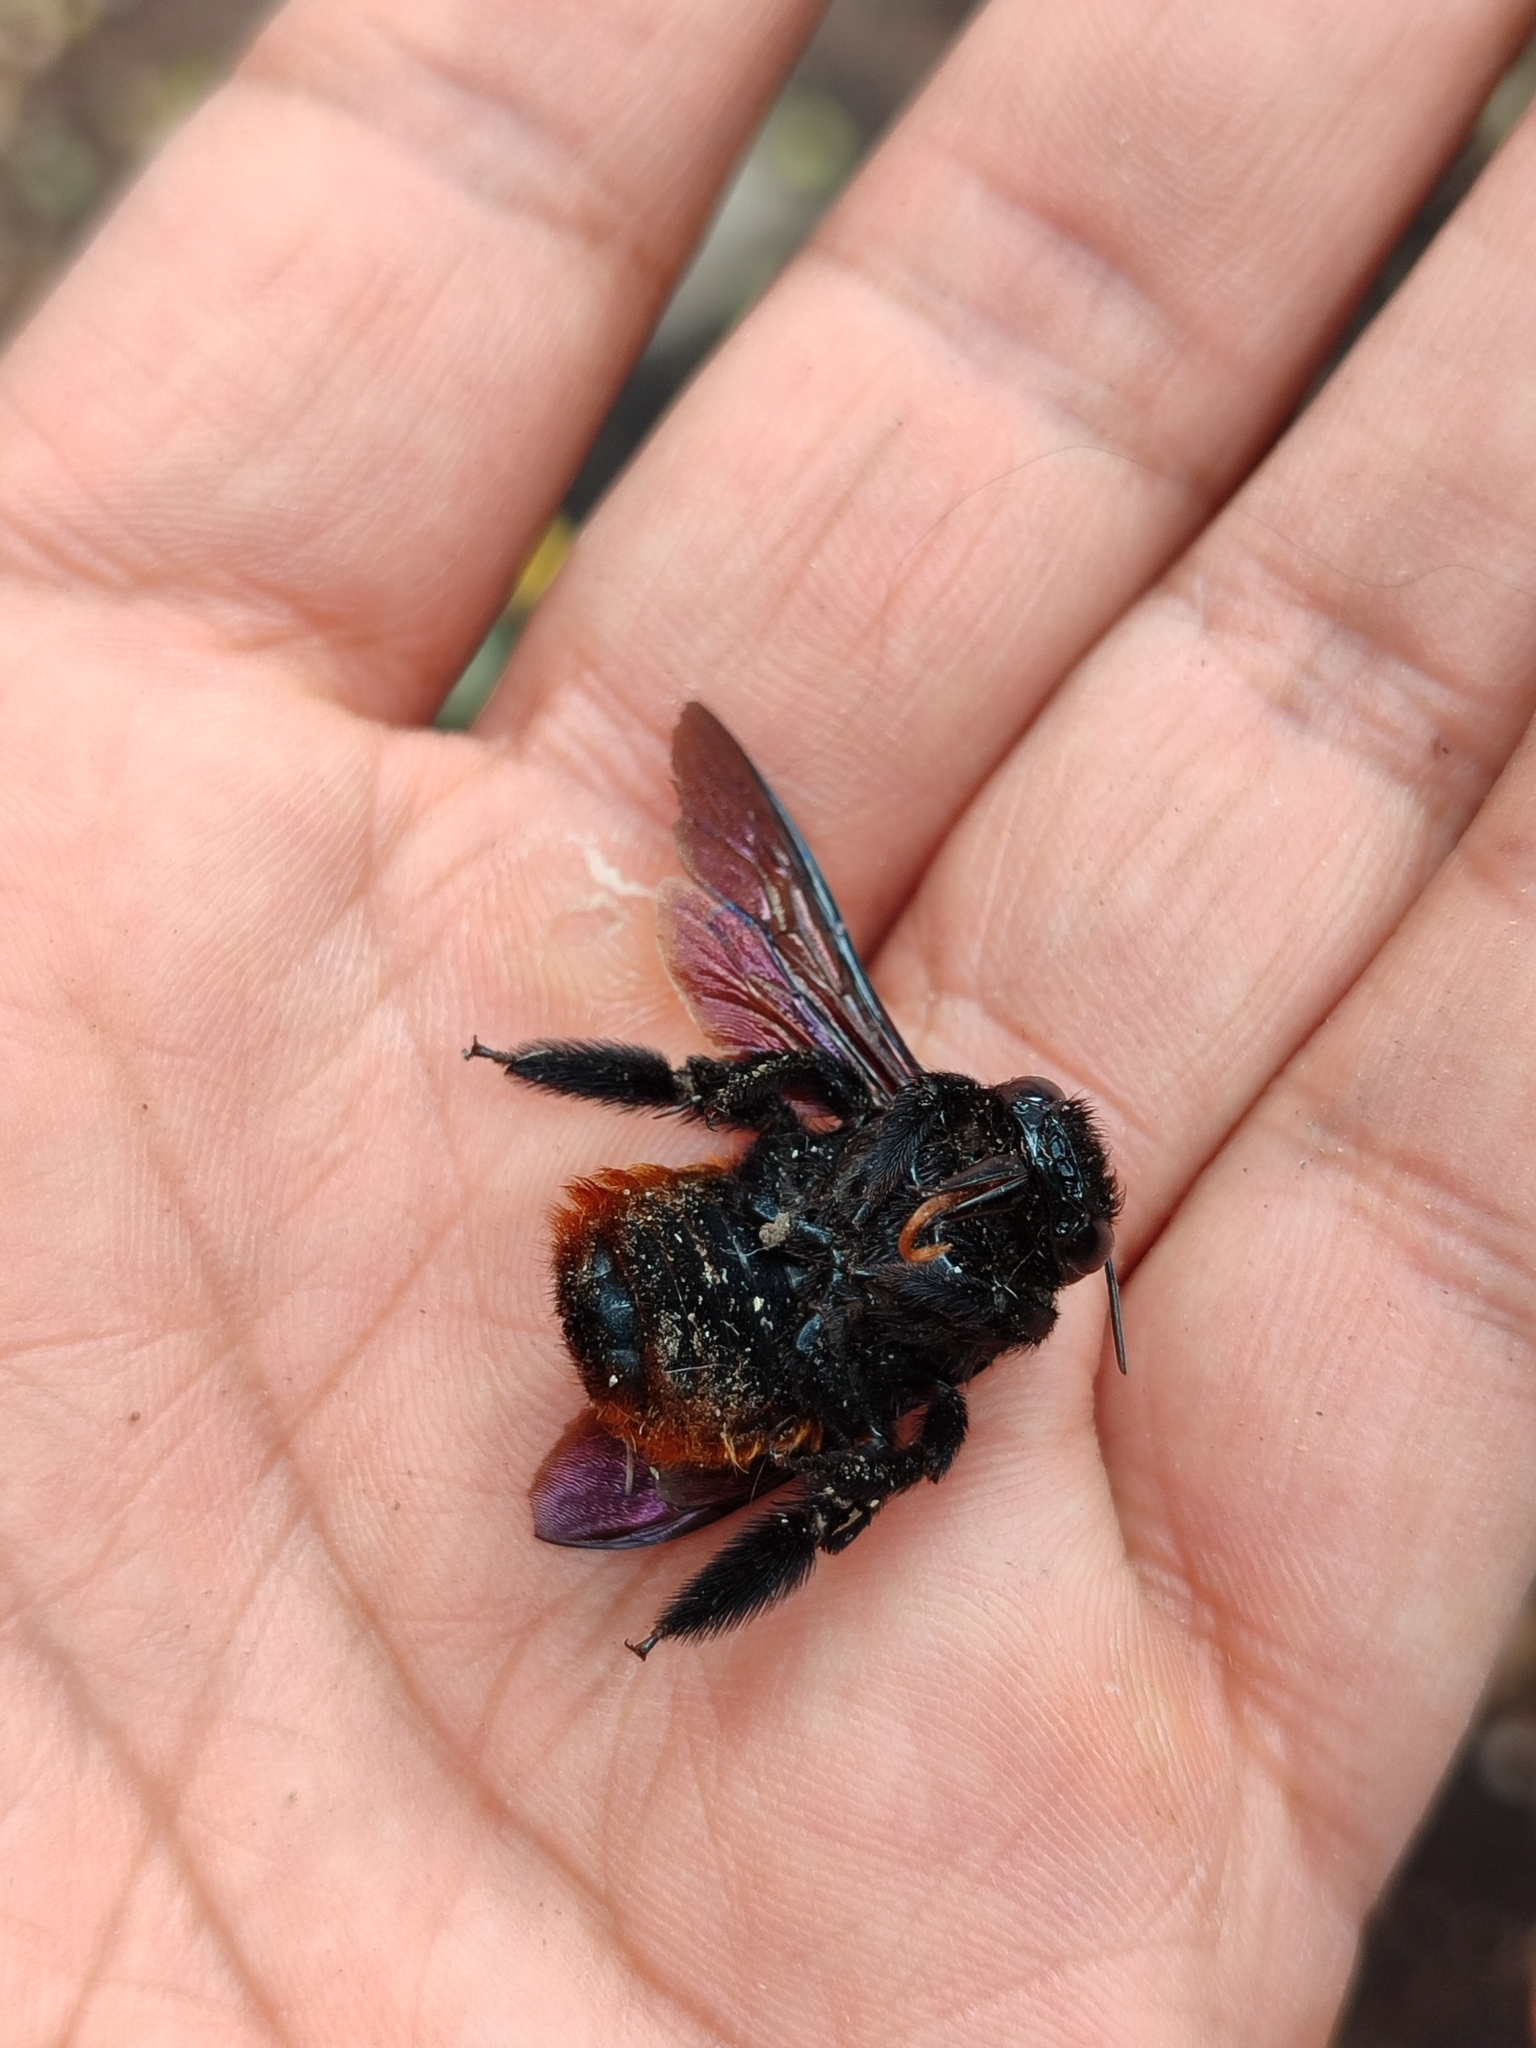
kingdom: Animalia
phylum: Arthropoda
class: Insecta
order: Hymenoptera
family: Apidae
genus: Xylocopa
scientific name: Xylocopa augusti
